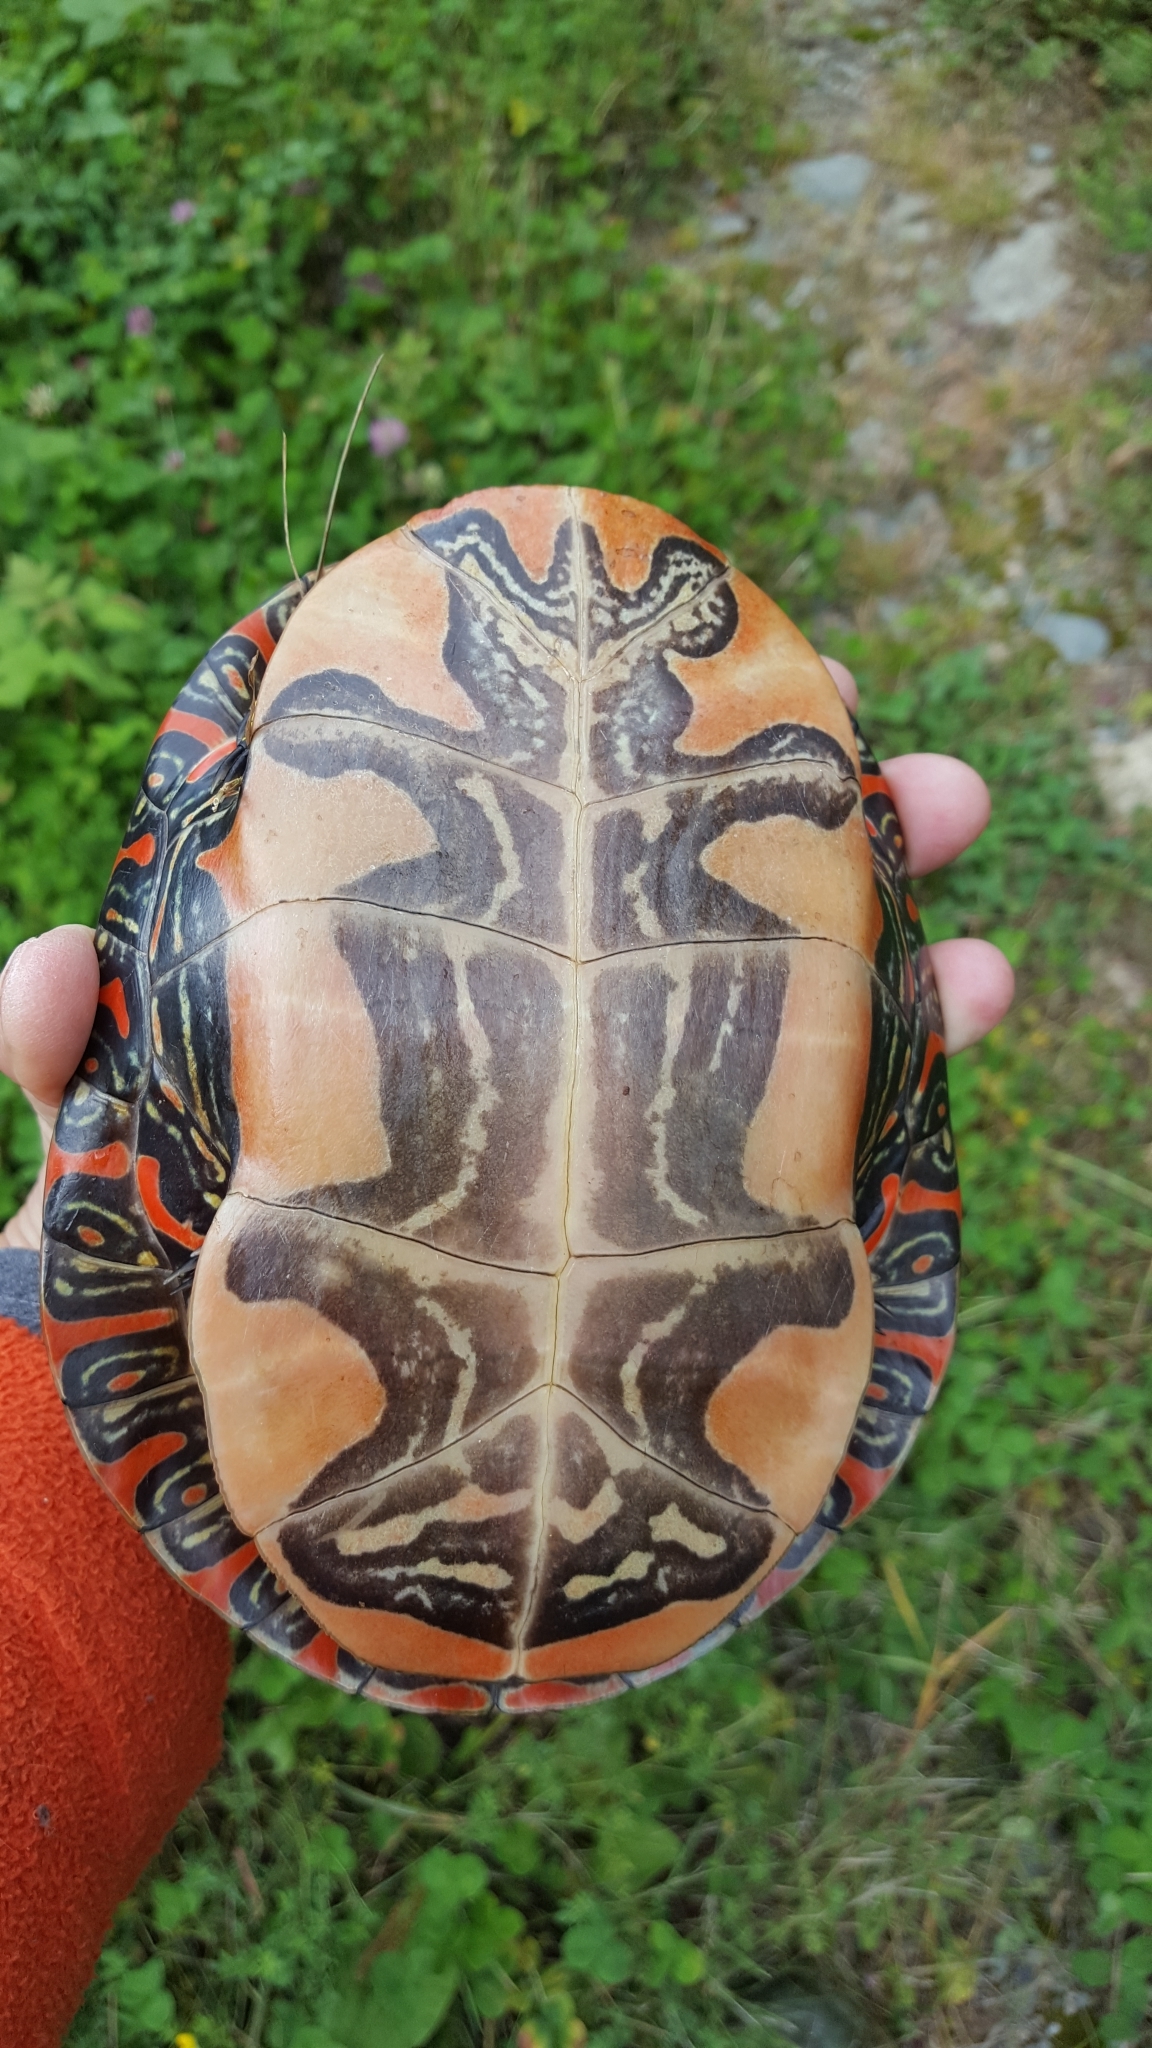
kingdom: Animalia
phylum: Chordata
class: Testudines
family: Emydidae
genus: Chrysemys
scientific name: Chrysemys picta
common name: Painted turtle
